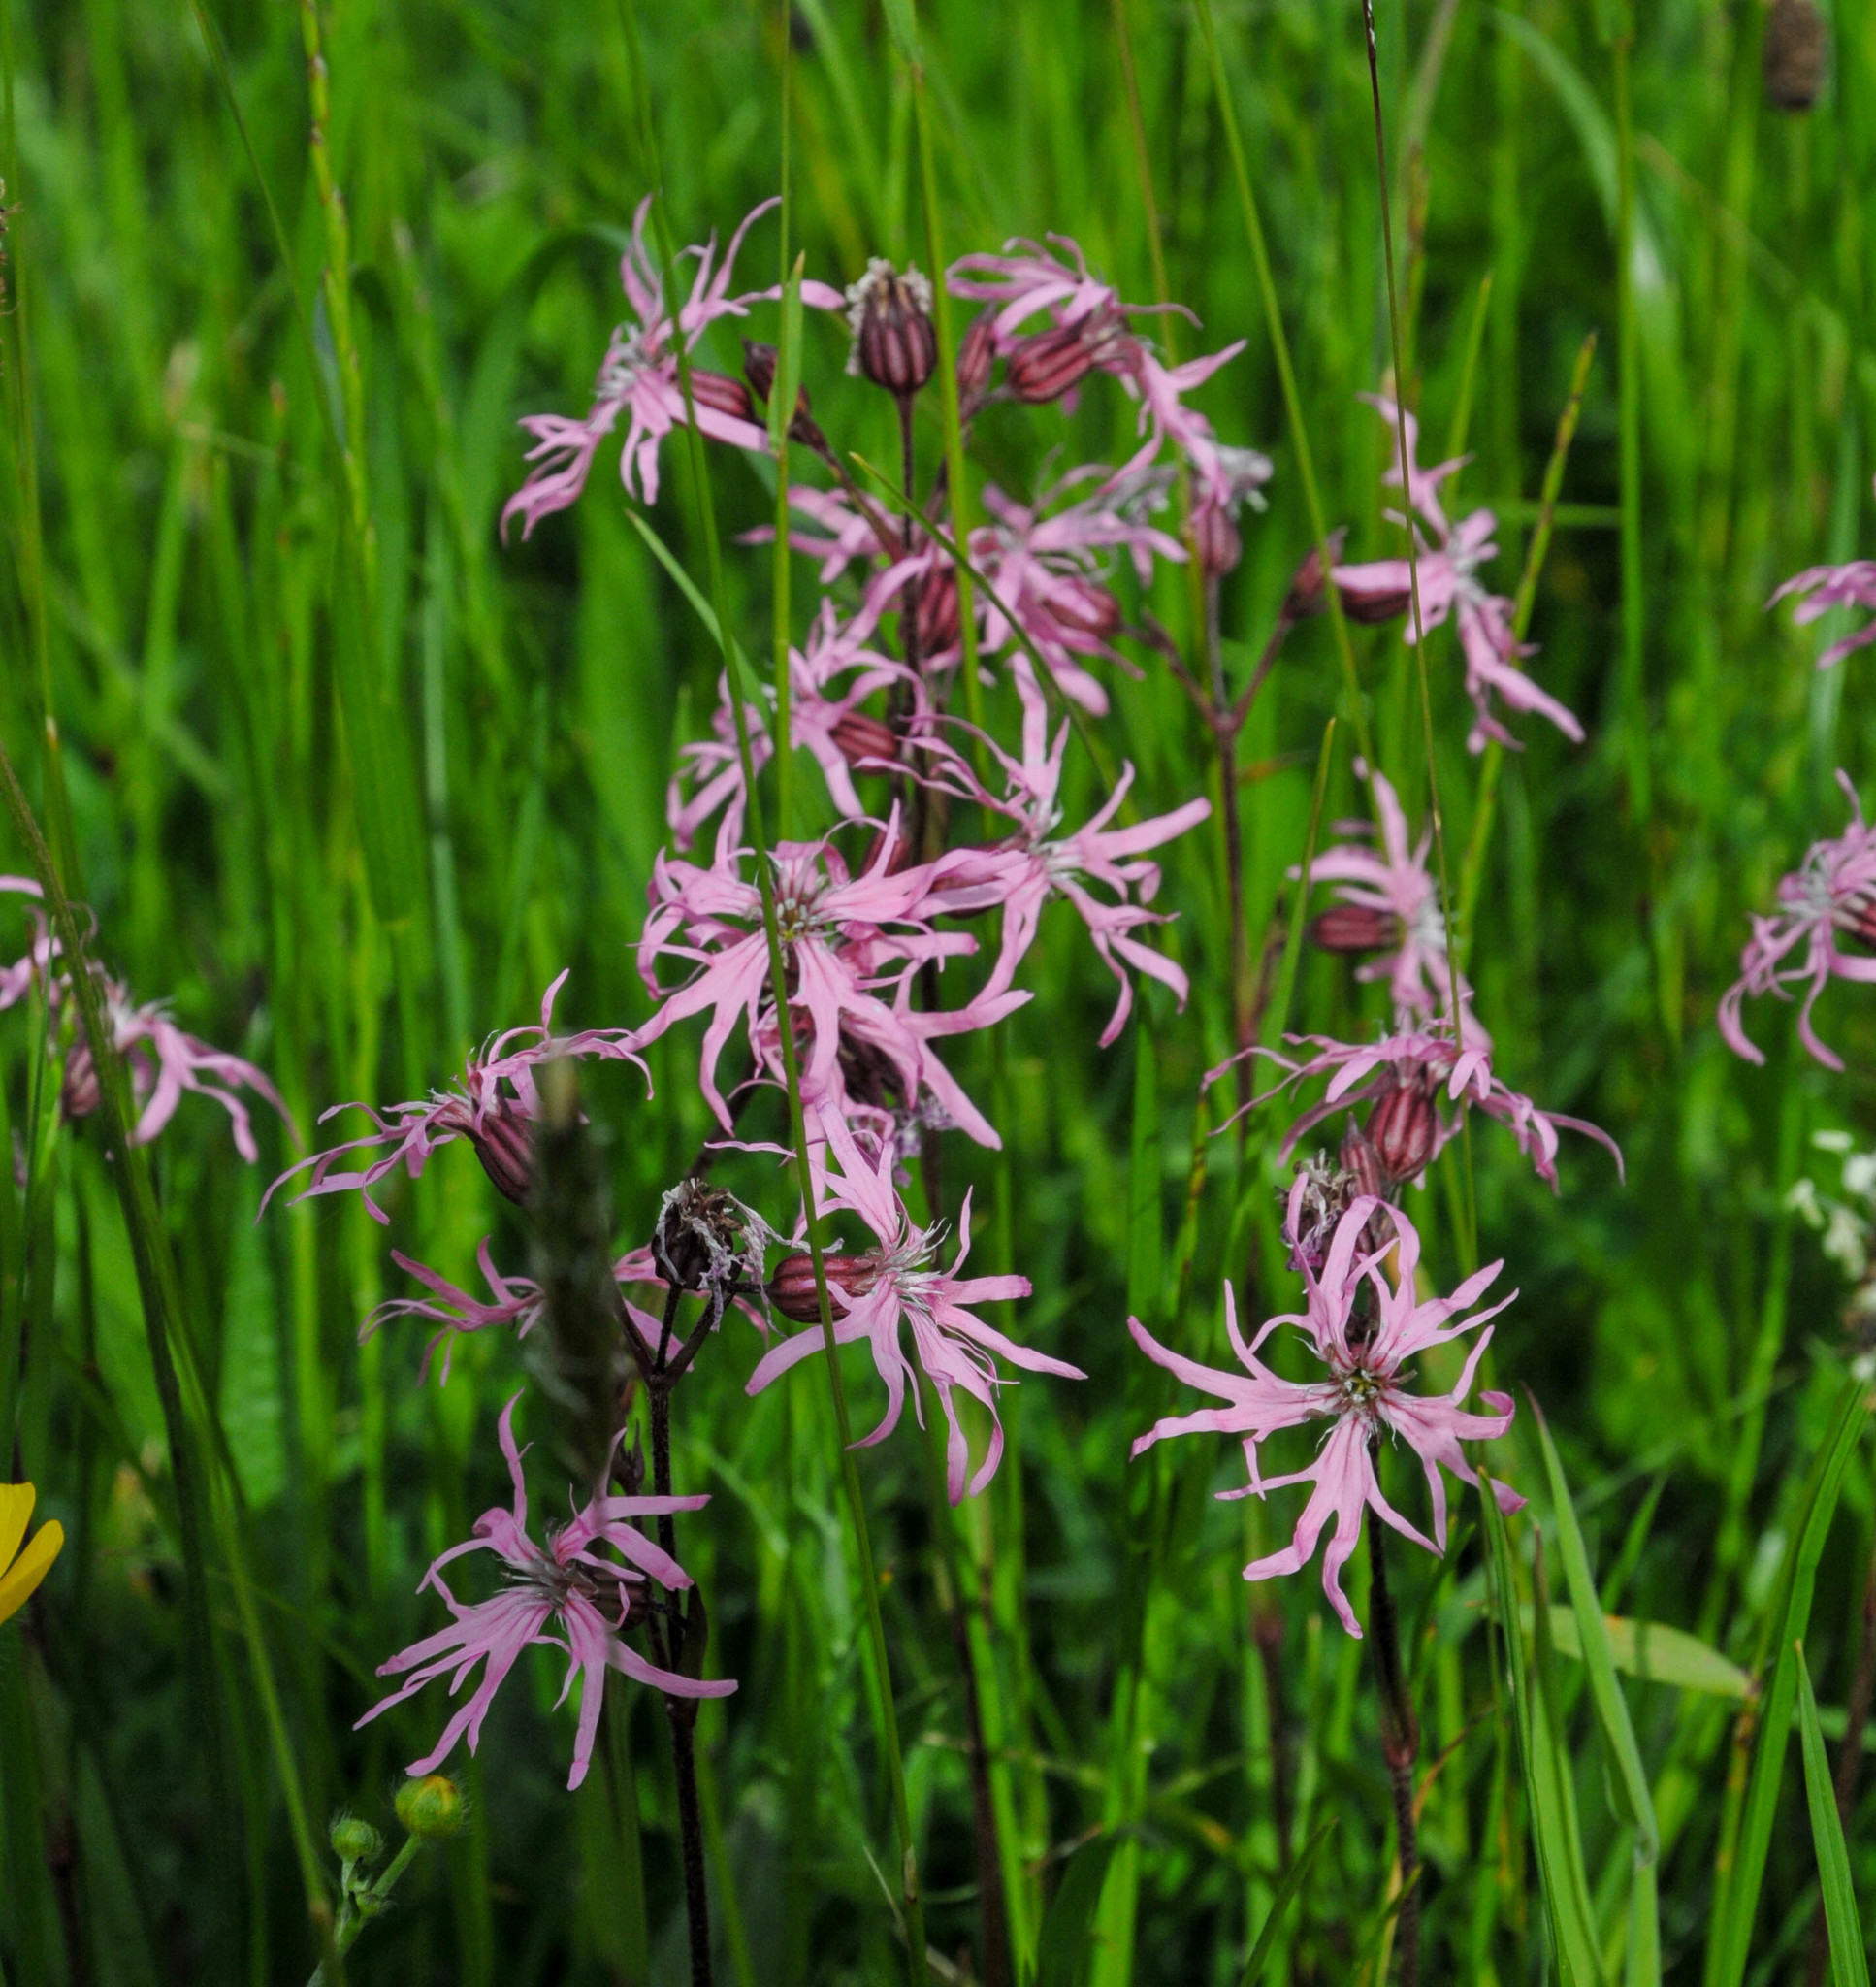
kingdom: Plantae
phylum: Tracheophyta
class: Magnoliopsida
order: Caryophyllales
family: Caryophyllaceae
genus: Silene
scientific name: Silene flos-cuculi
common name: Ragged-robin
